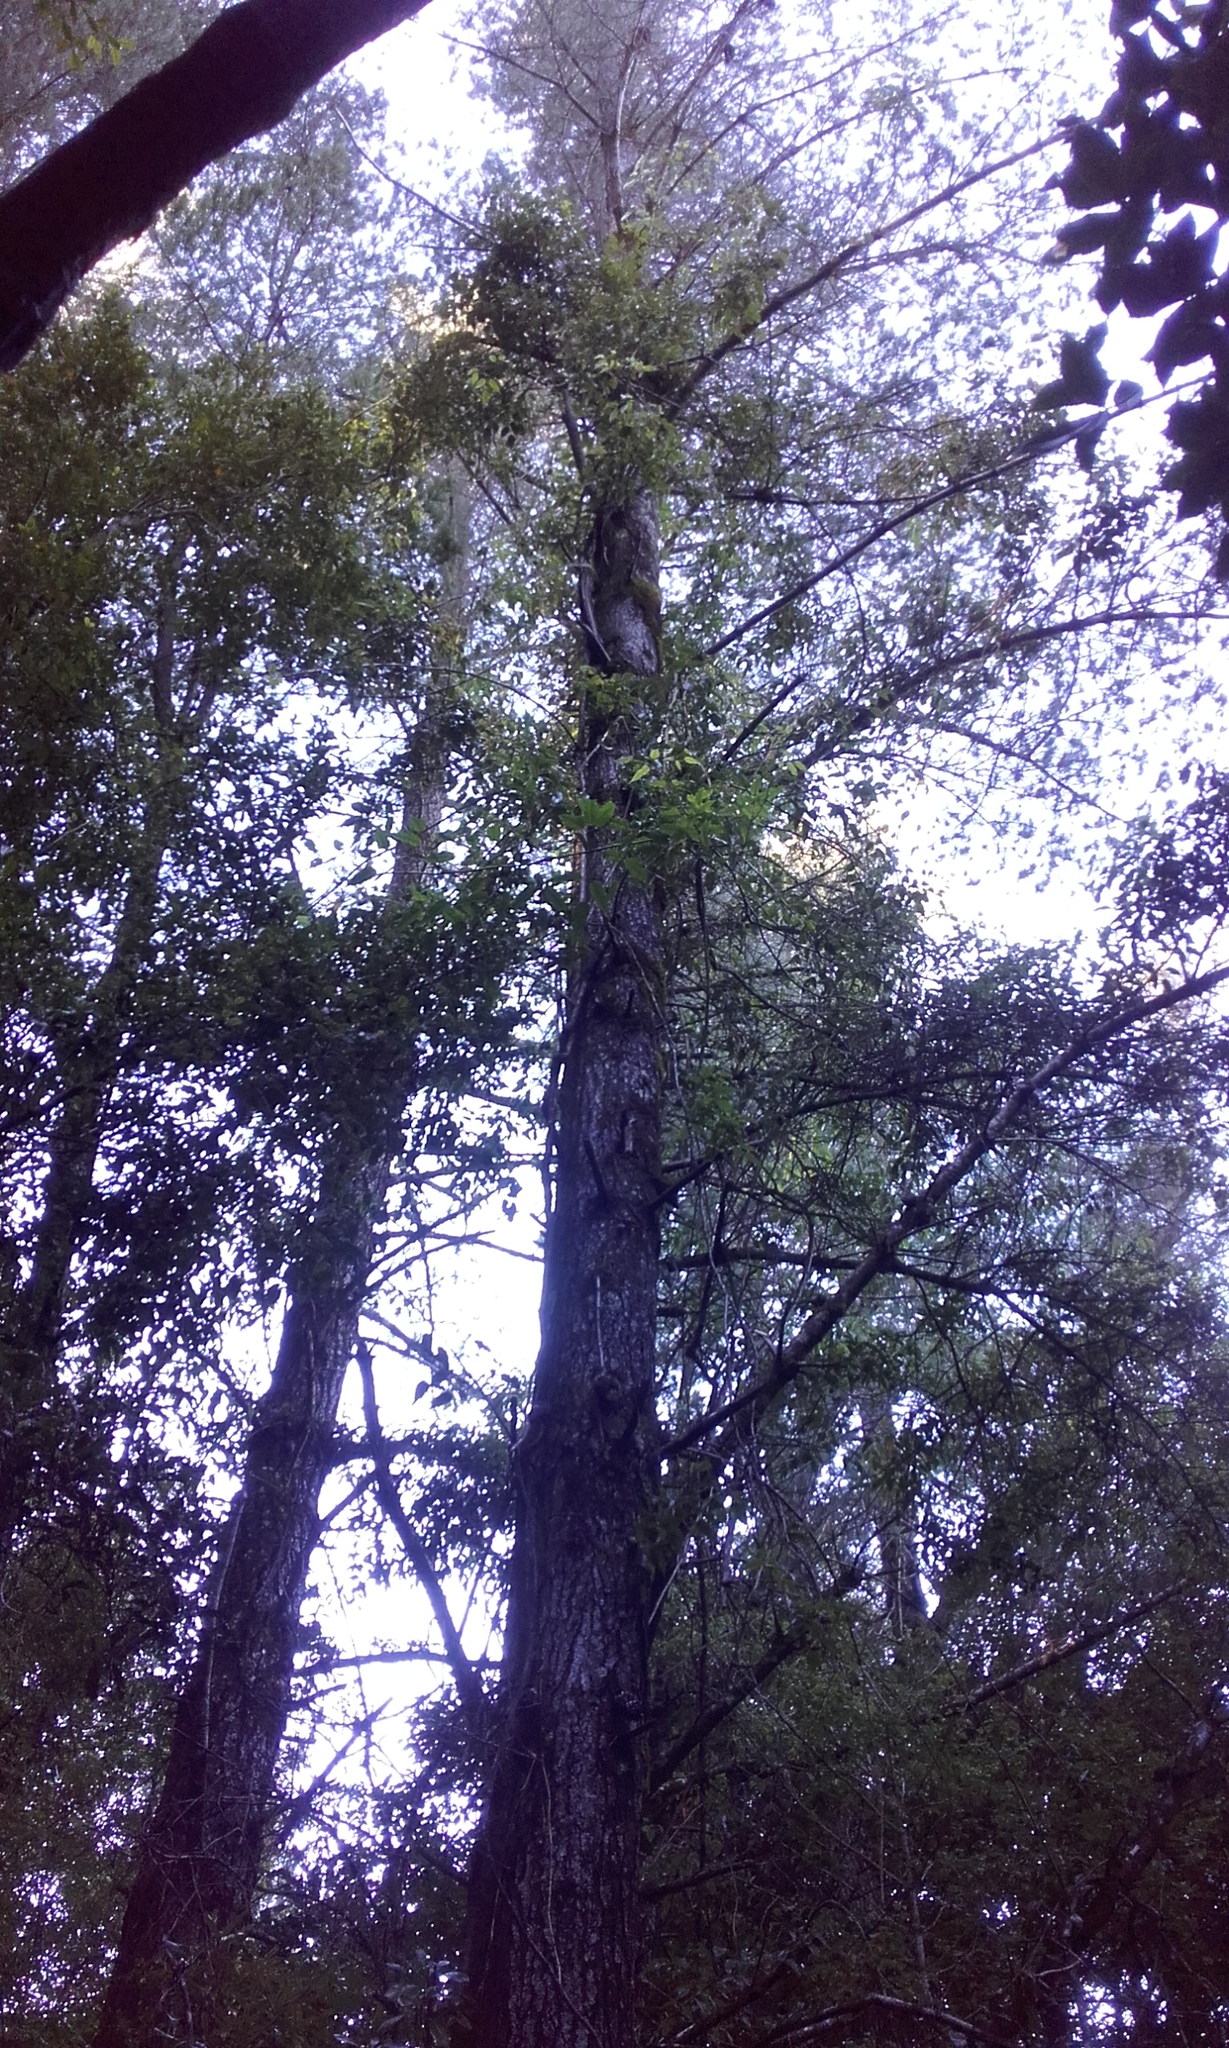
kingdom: Plantae
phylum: Tracheophyta
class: Pinopsida
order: Pinales
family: Pinaceae
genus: Pinus
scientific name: Pinus radiata
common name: Monterey pine
